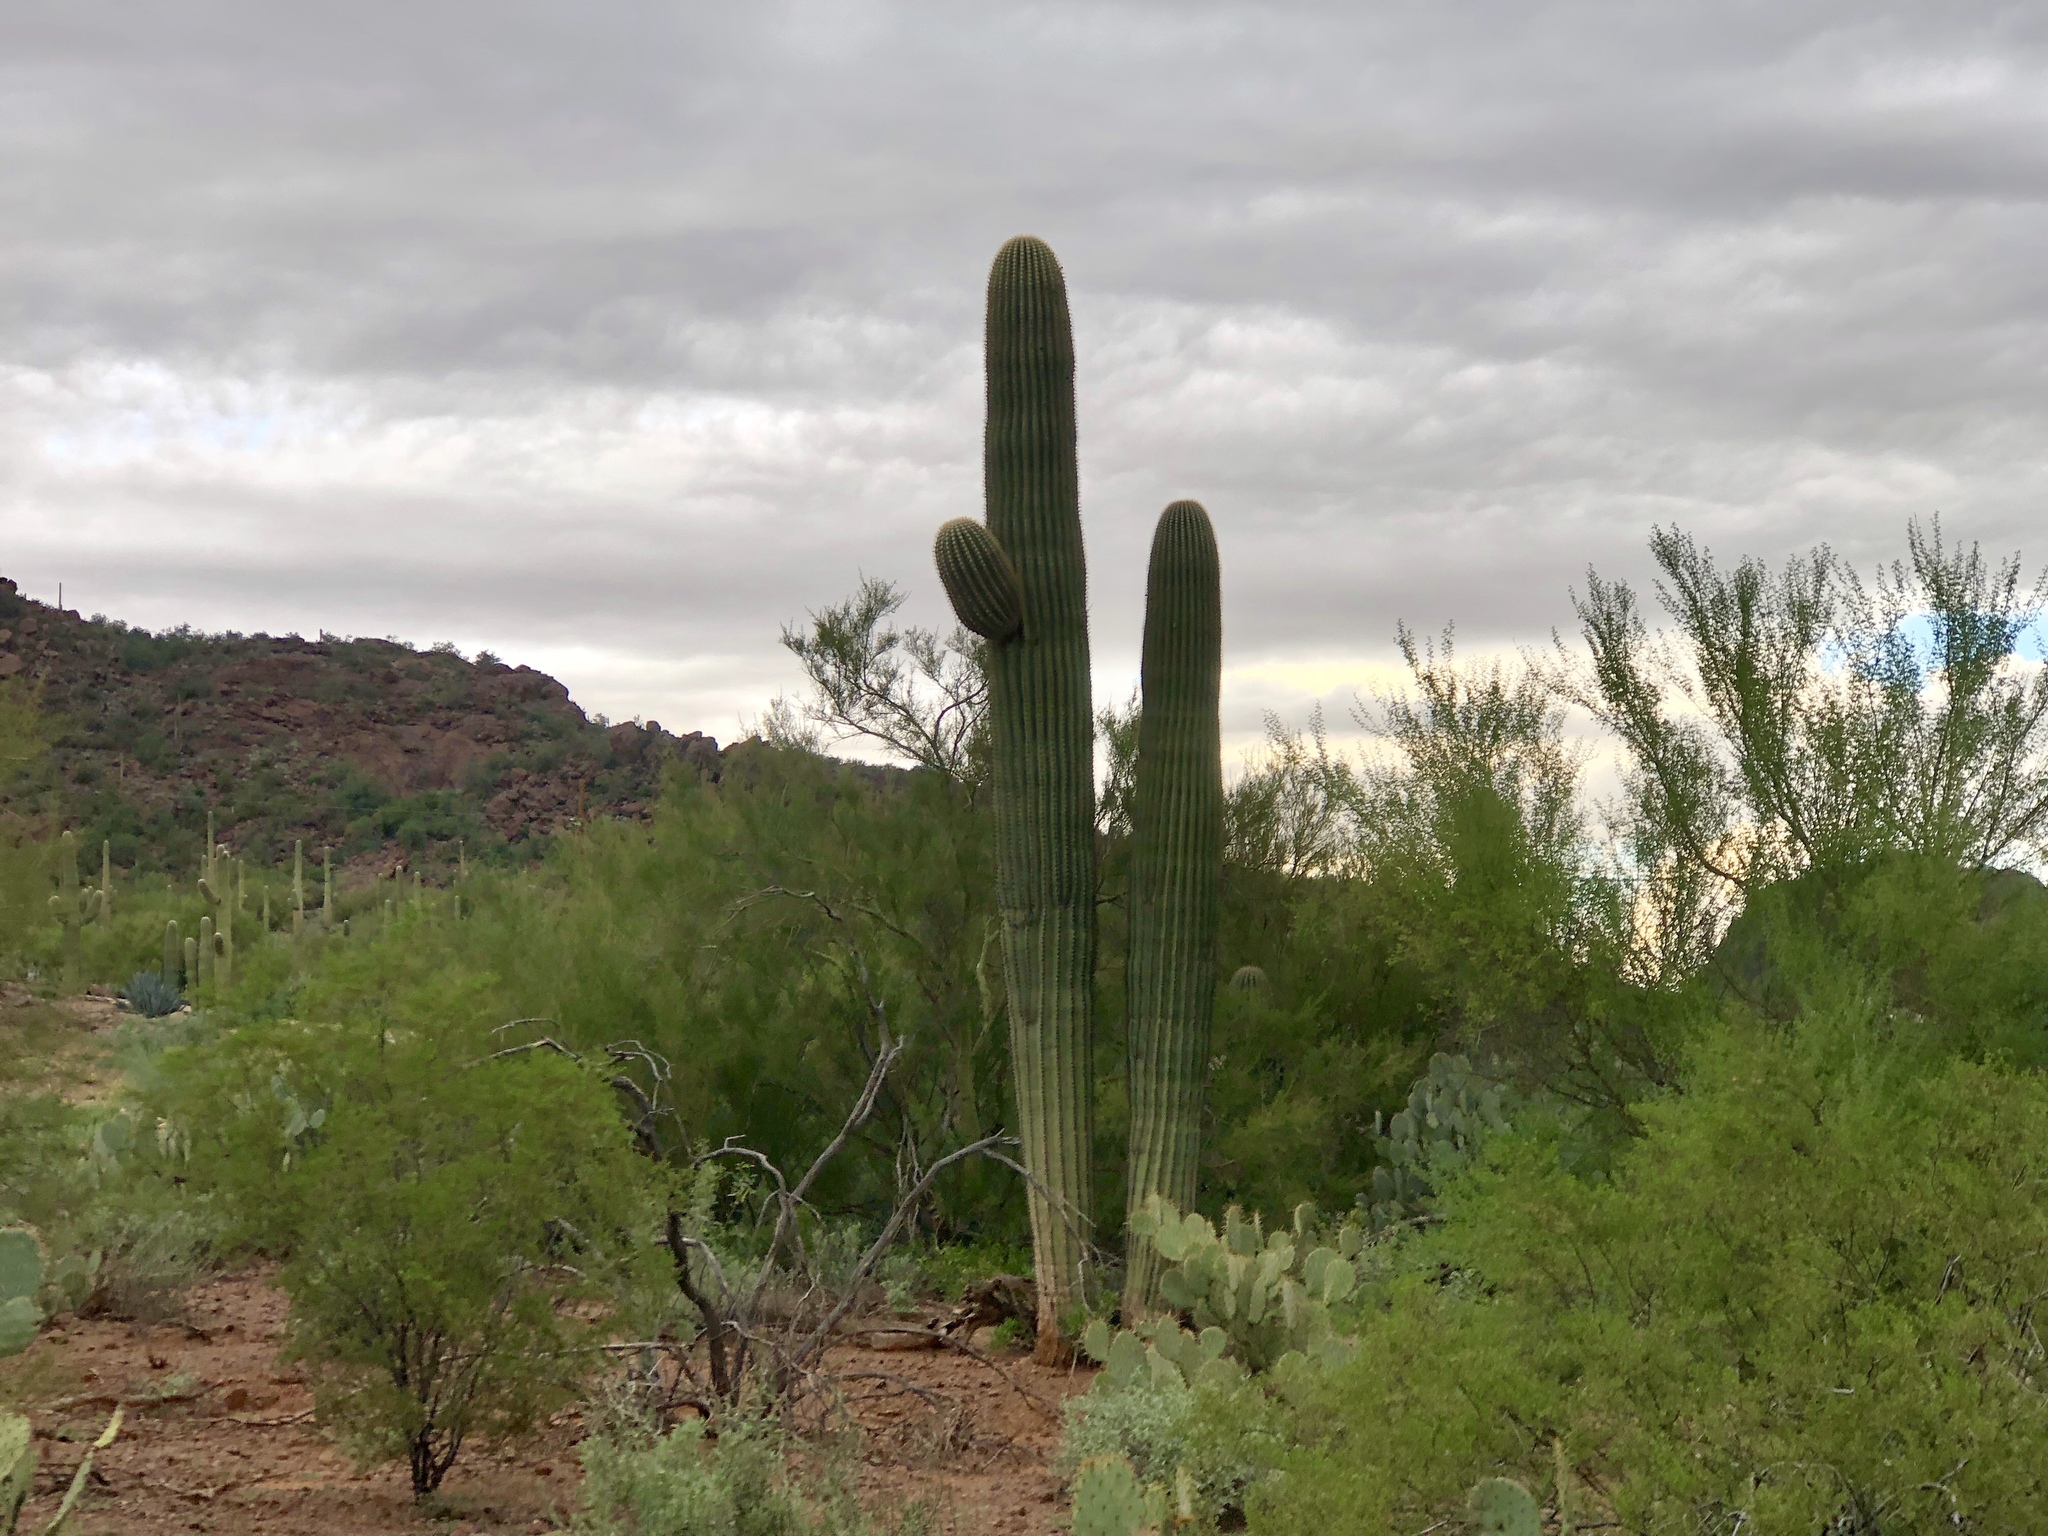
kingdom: Plantae
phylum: Tracheophyta
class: Magnoliopsida
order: Caryophyllales
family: Cactaceae
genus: Carnegiea
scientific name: Carnegiea gigantea
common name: Saguaro
